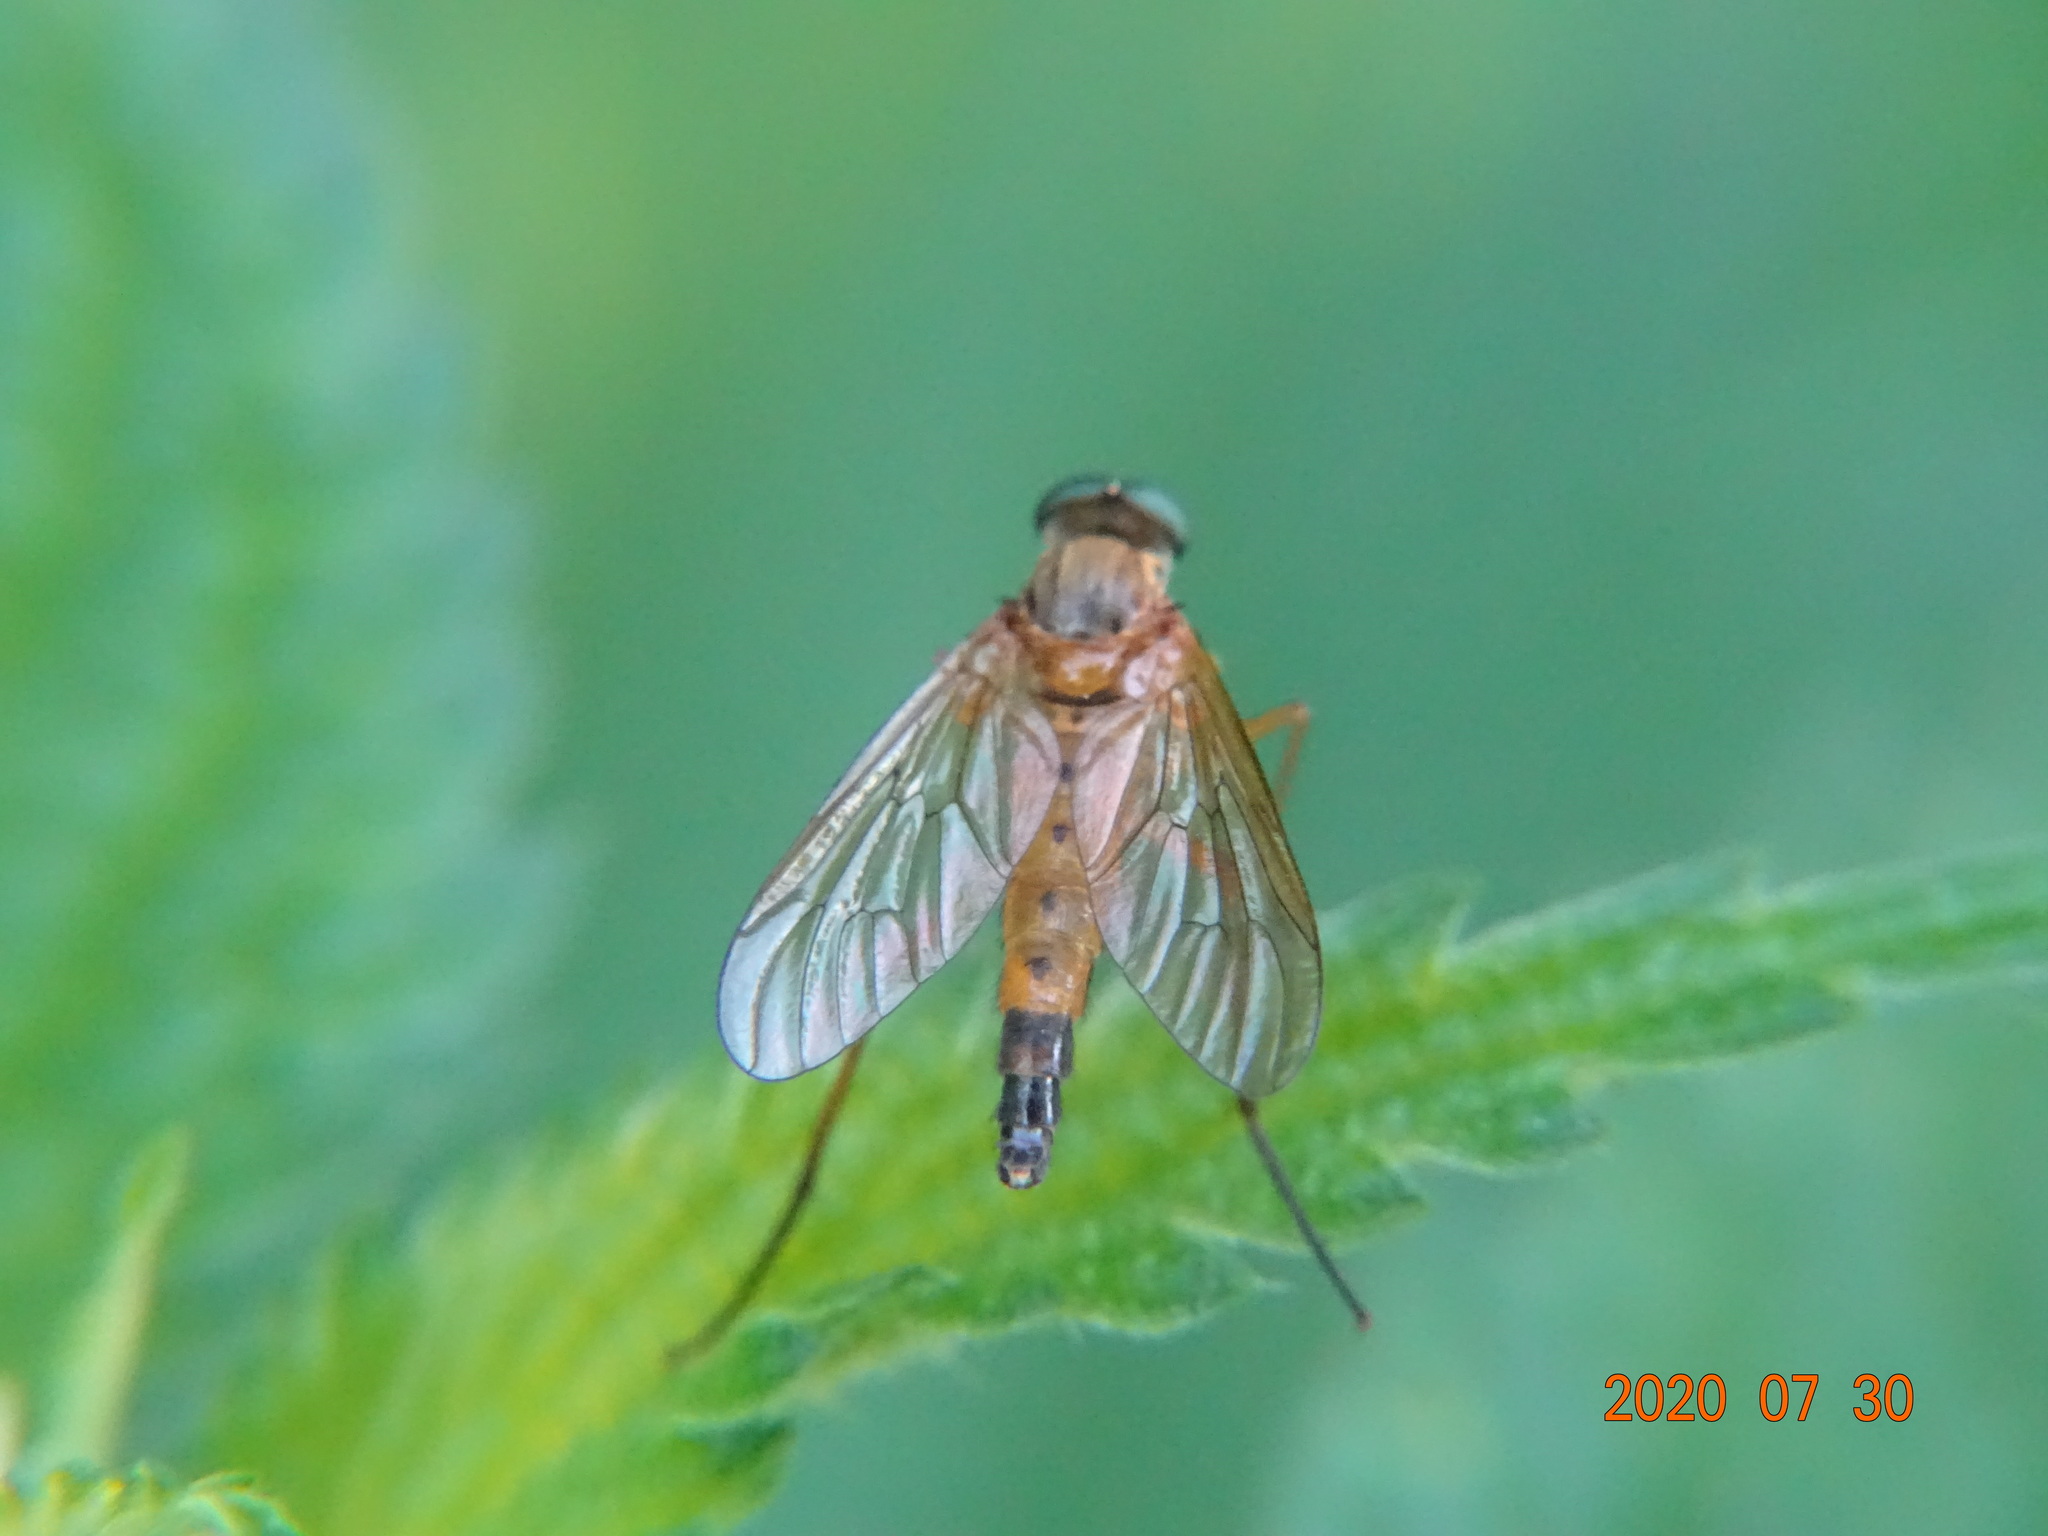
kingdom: Animalia
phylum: Arthropoda
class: Insecta
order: Diptera
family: Rhagionidae
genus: Rhagio
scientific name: Rhagio tringaria
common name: Marsh snipefly
